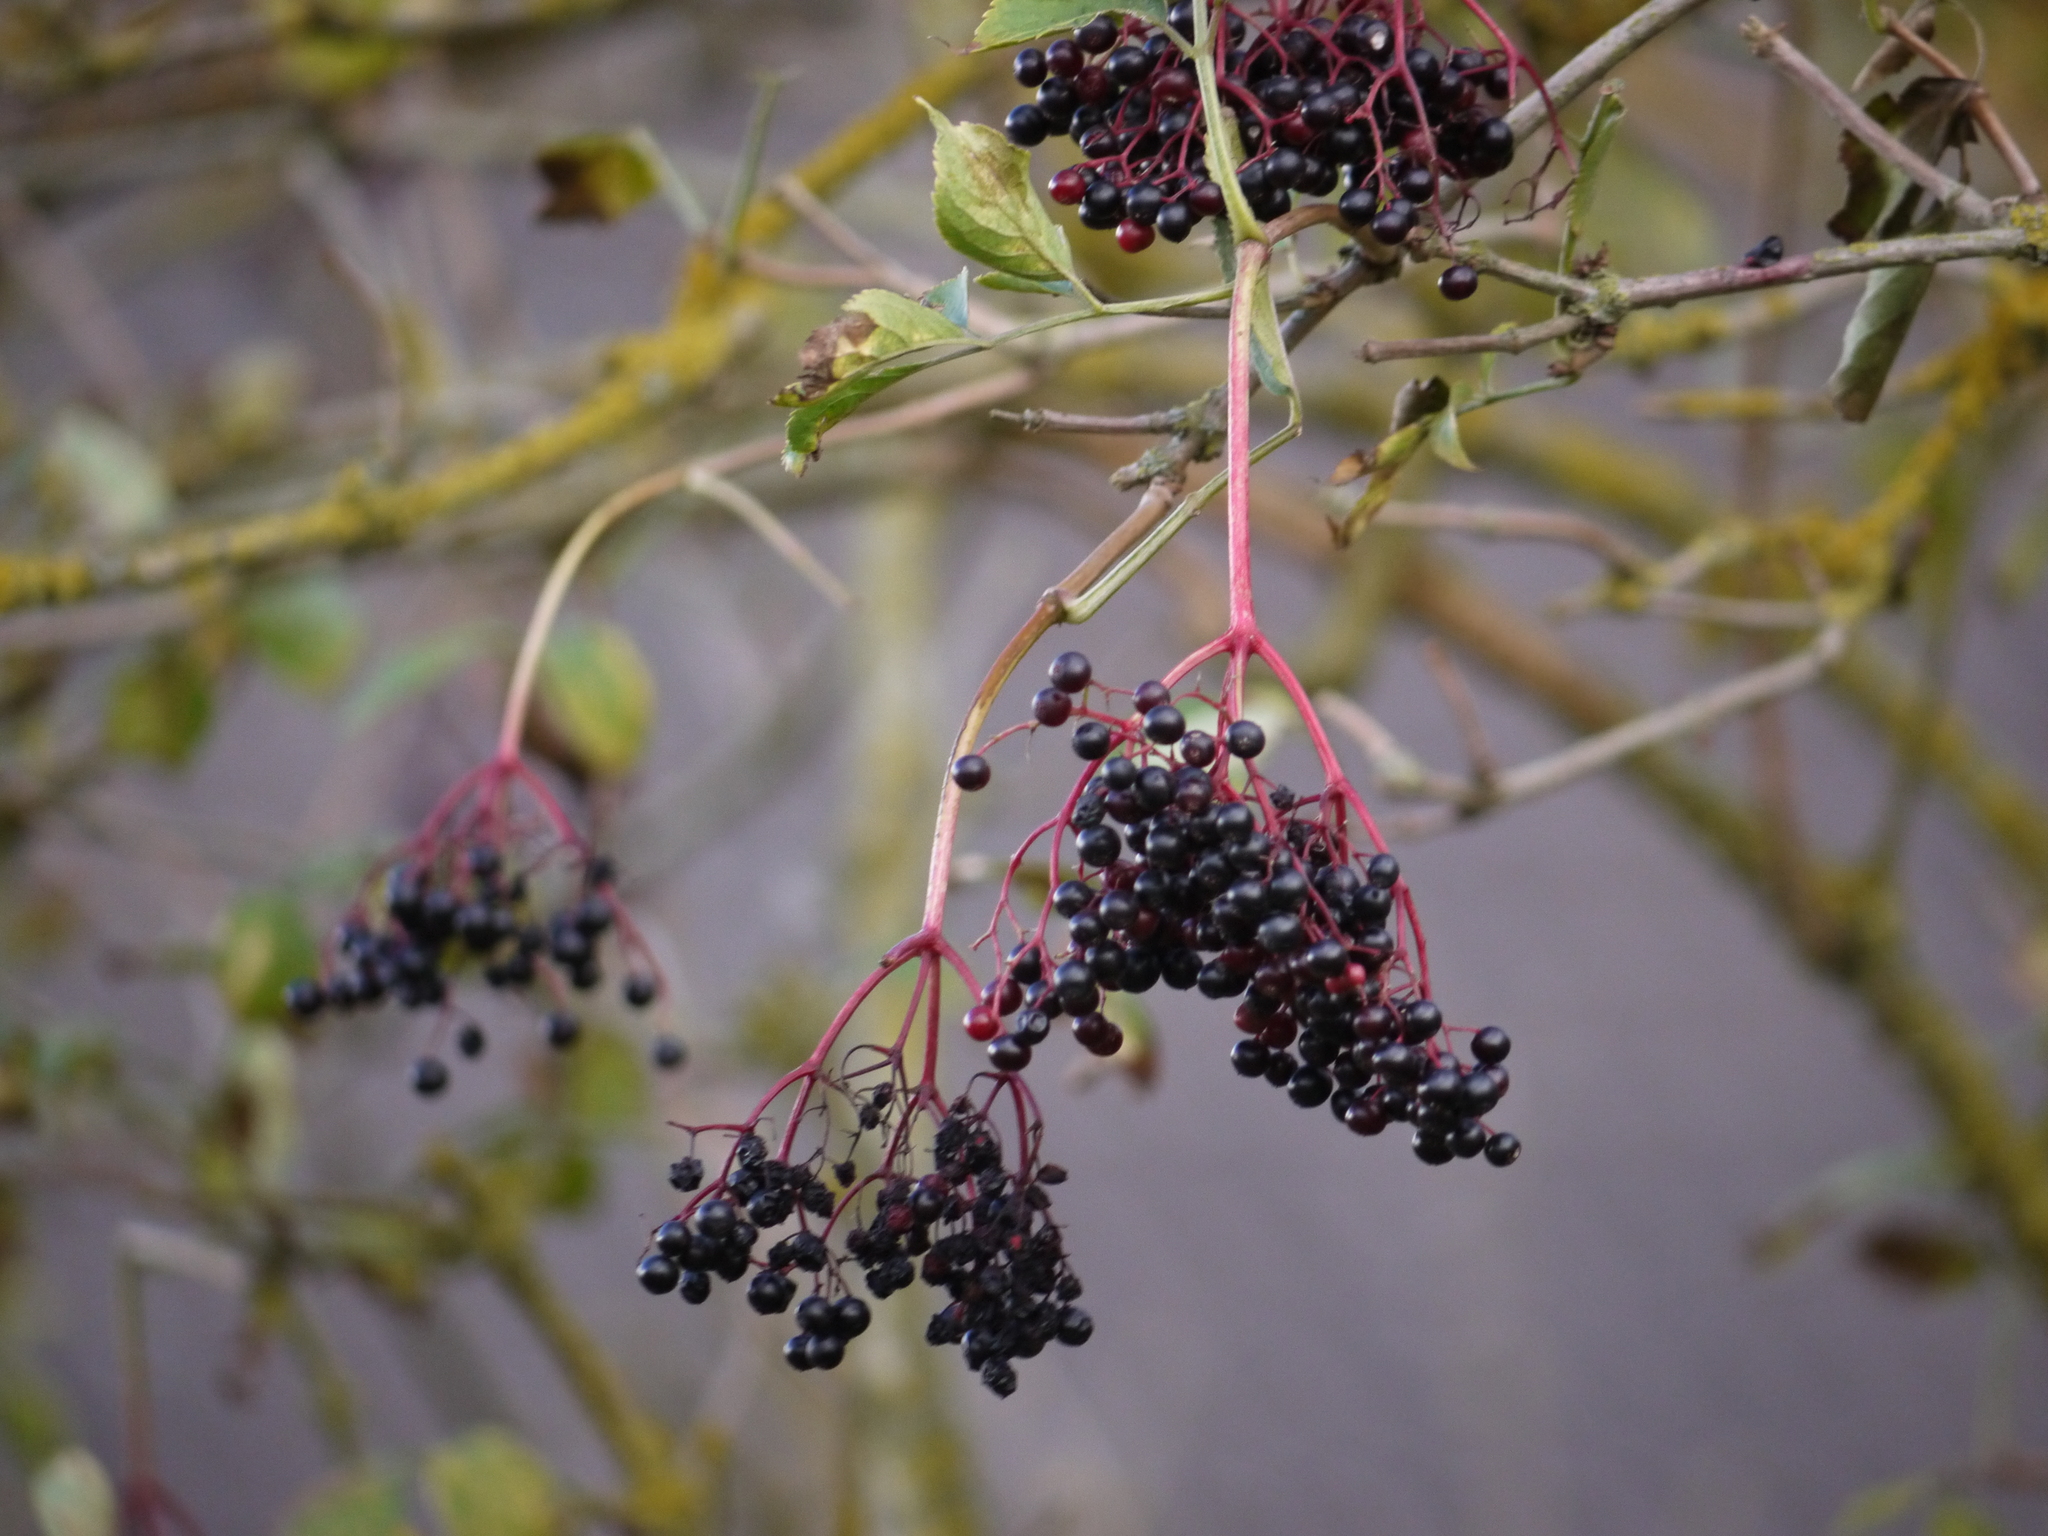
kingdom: Plantae
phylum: Tracheophyta
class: Magnoliopsida
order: Dipsacales
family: Viburnaceae
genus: Sambucus
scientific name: Sambucus nigra
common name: Elder
